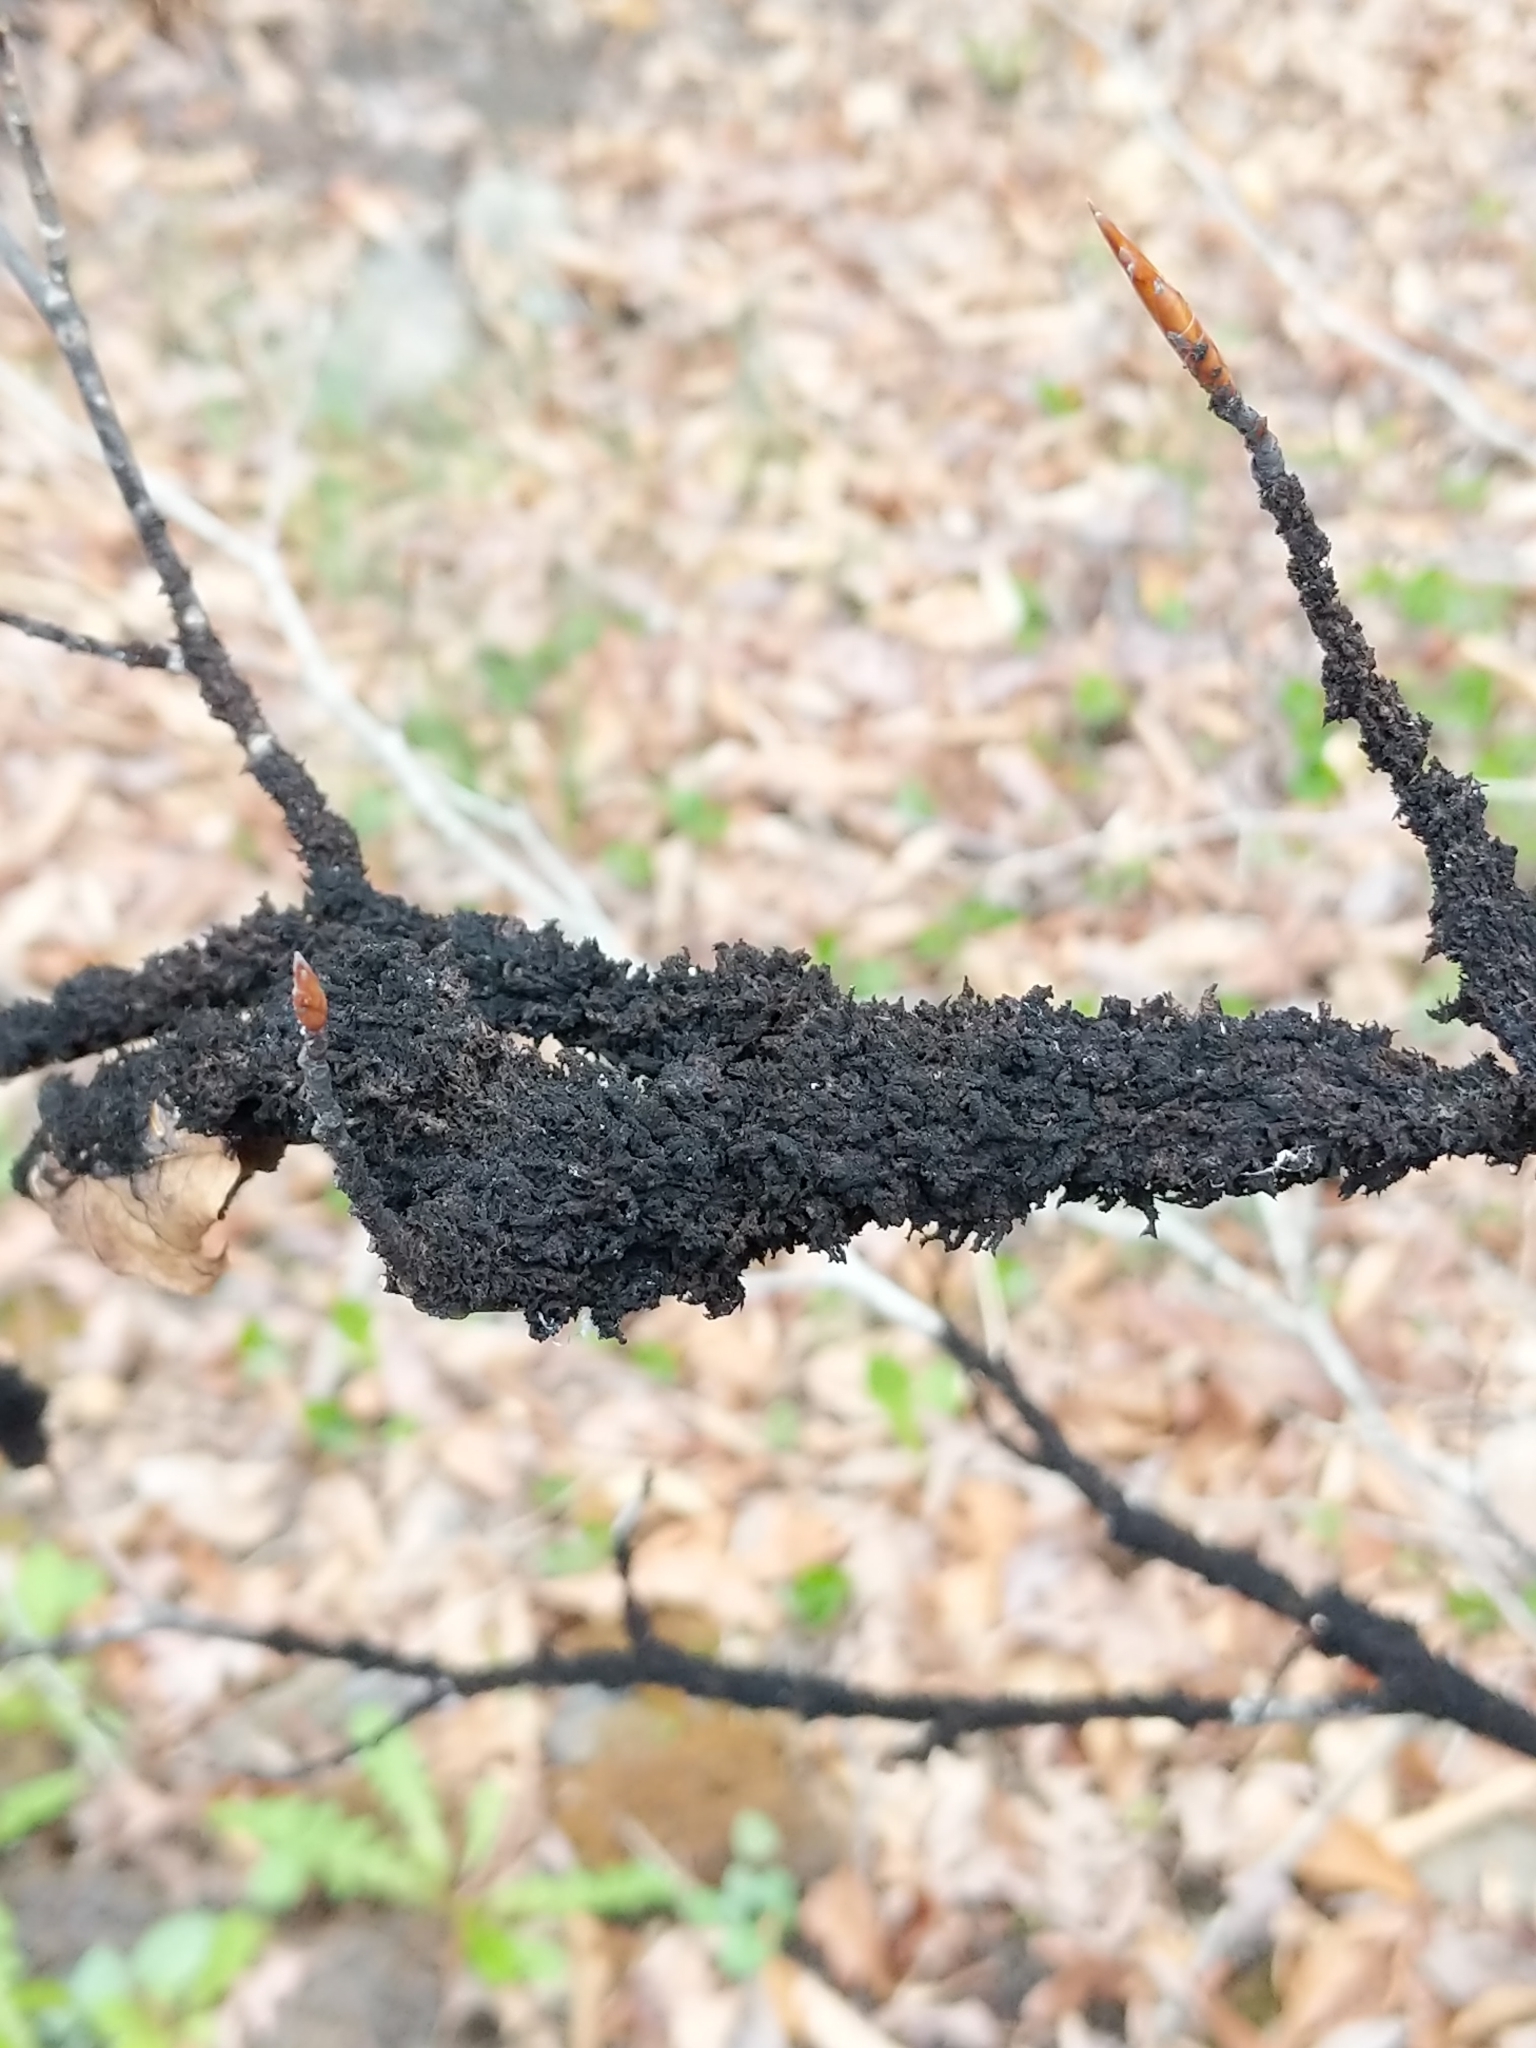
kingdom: Fungi
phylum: Ascomycota
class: Dothideomycetes
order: Capnodiales
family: Capnodiaceae
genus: Scorias
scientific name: Scorias spongiosa
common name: Black sooty mold
